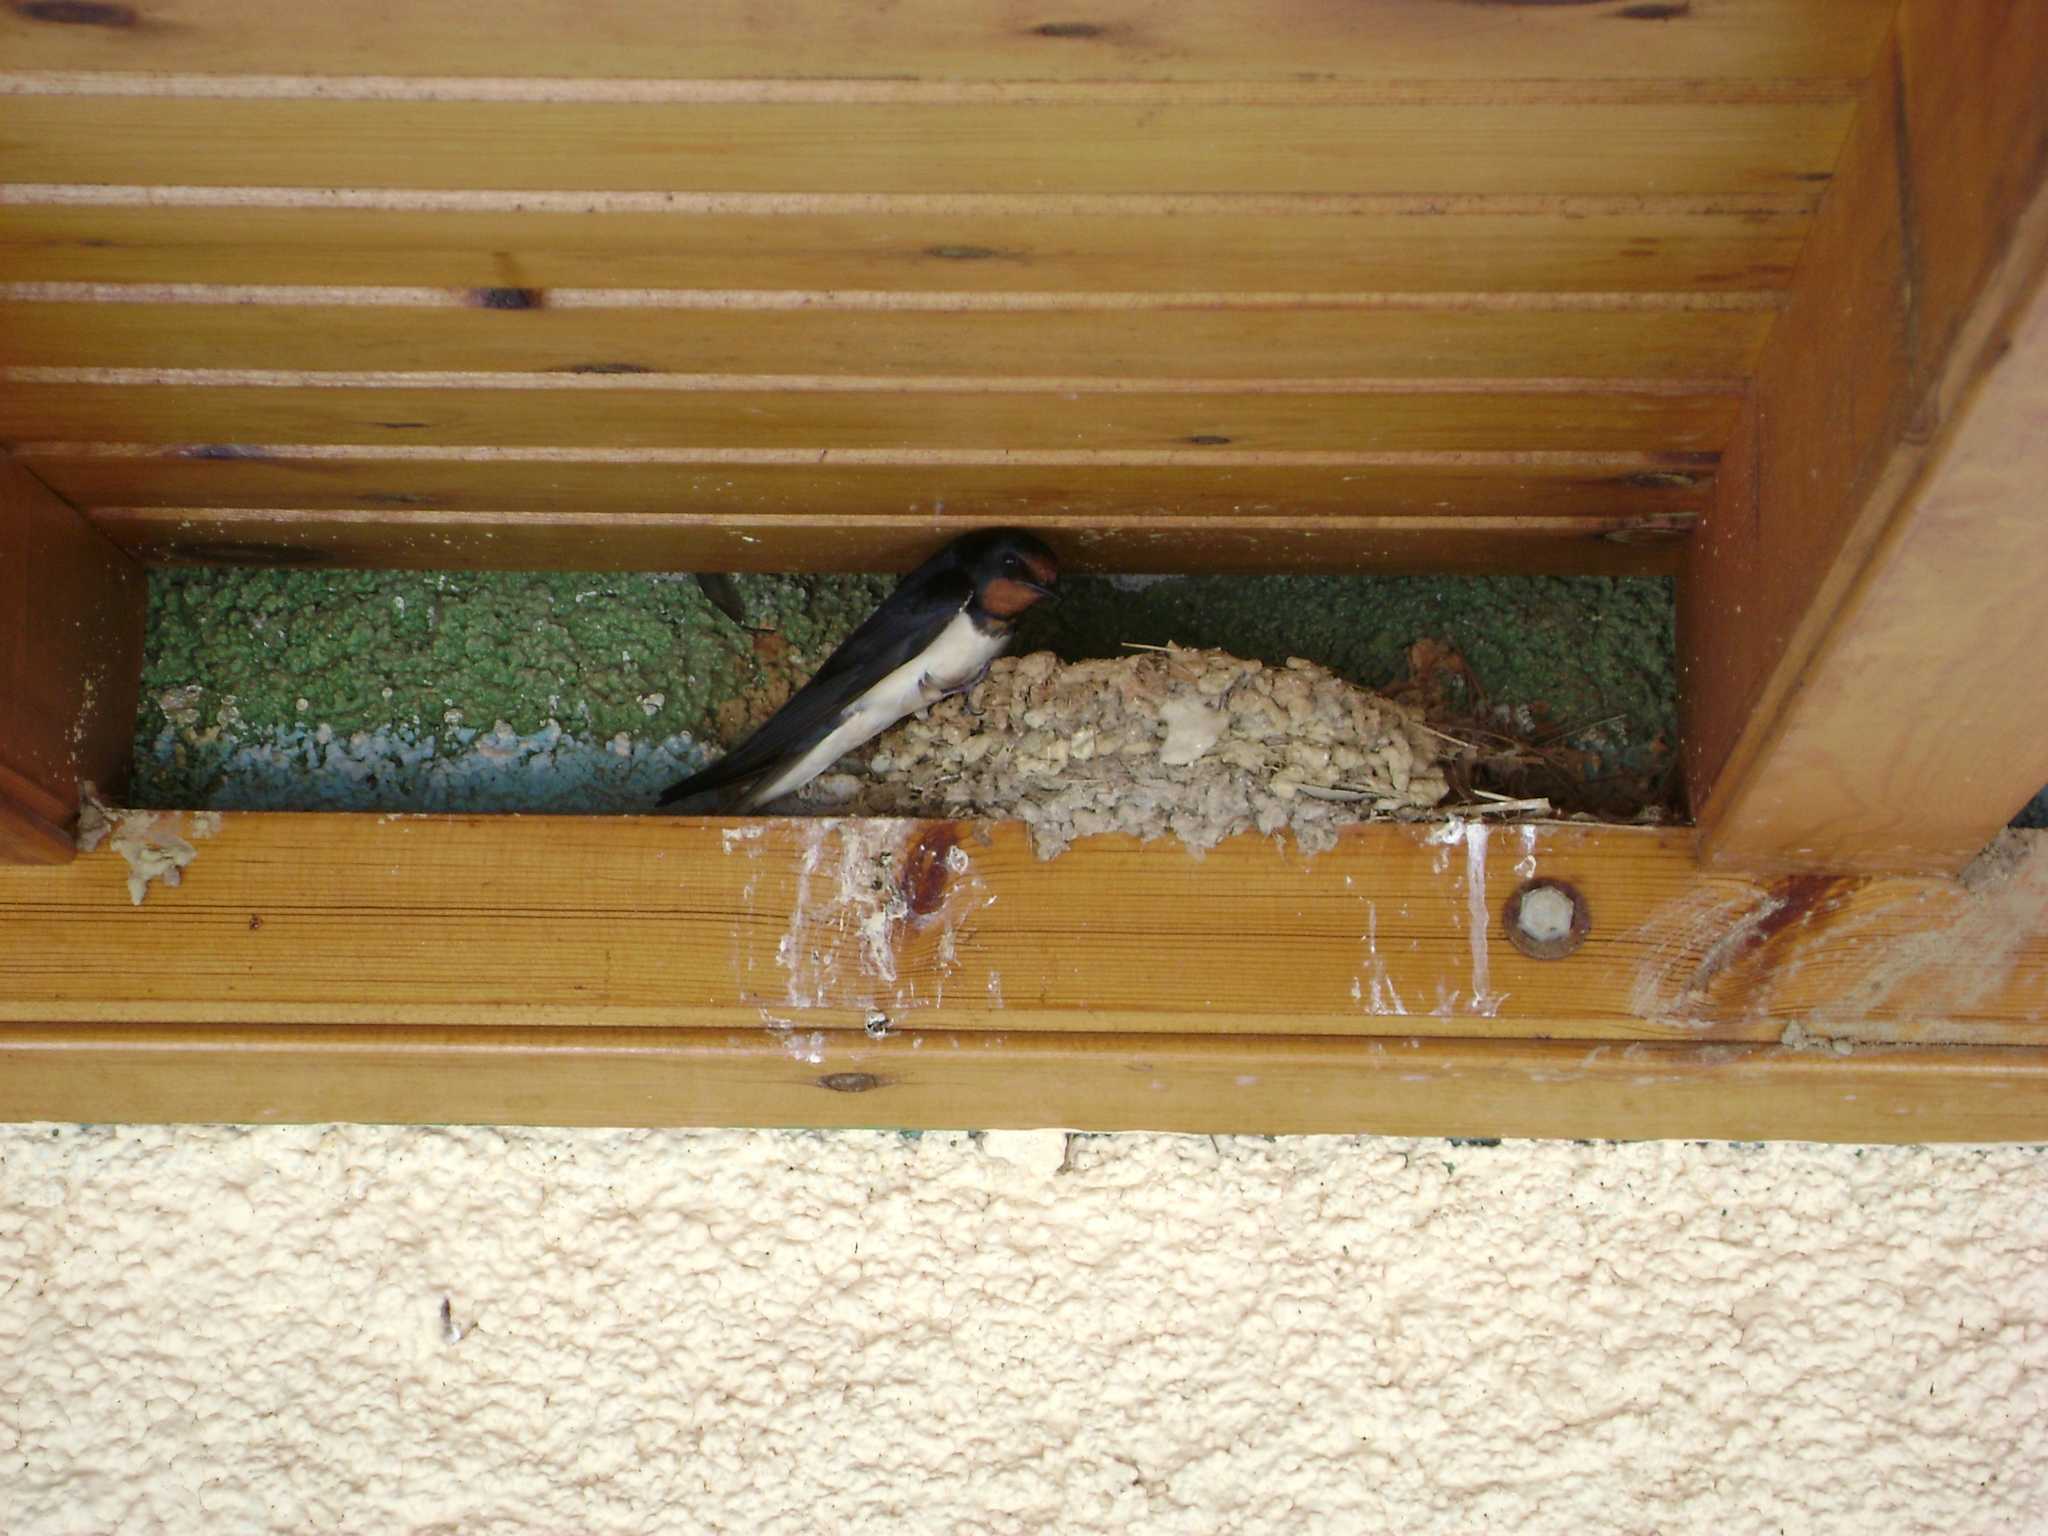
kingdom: Animalia
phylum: Chordata
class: Aves
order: Passeriformes
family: Hirundinidae
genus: Hirundo
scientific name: Hirundo rustica
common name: Barn swallow
